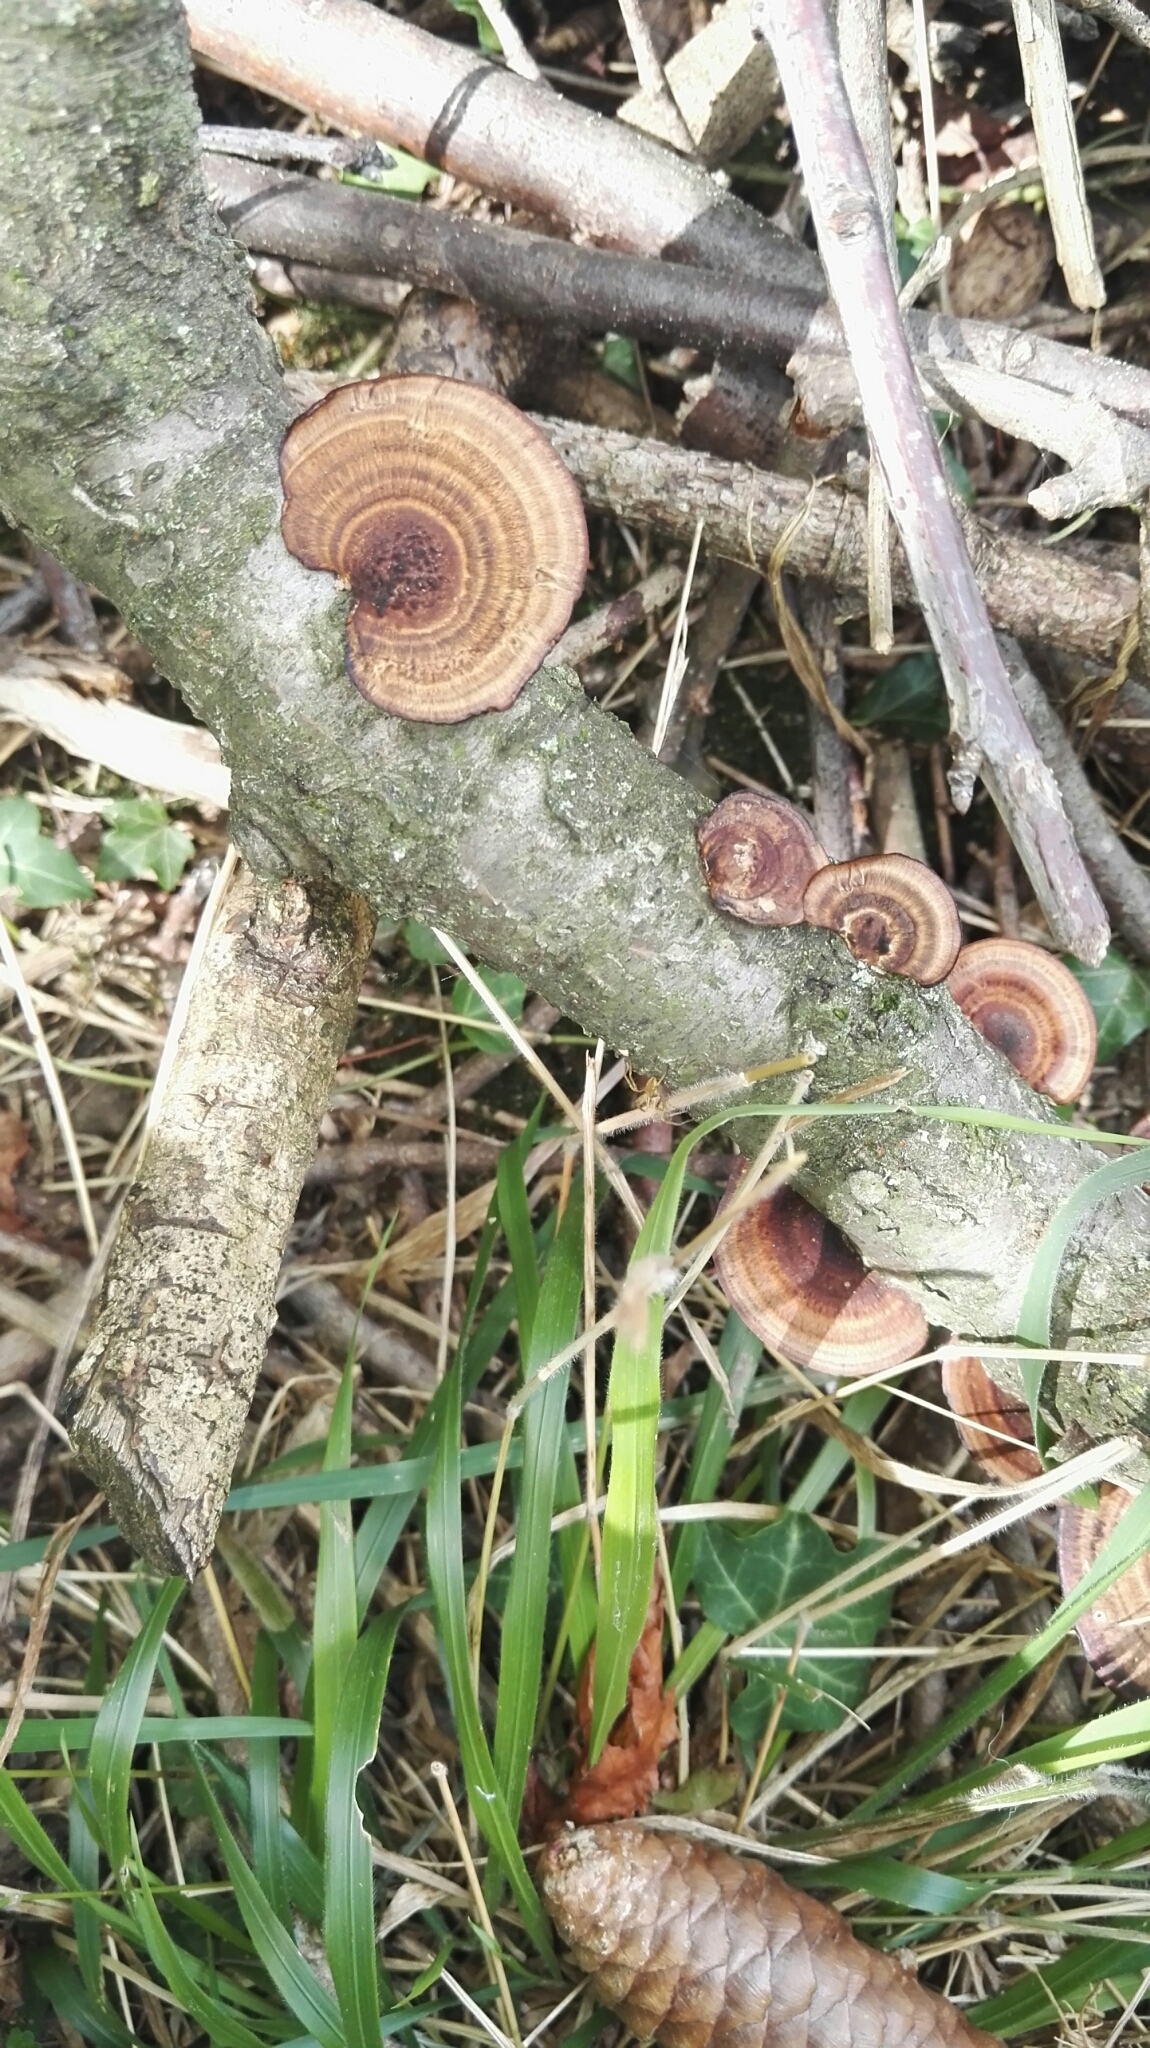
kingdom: Fungi
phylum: Basidiomycota
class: Agaricomycetes
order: Polyporales
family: Polyporaceae
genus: Daedaleopsis
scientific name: Daedaleopsis tricolor
